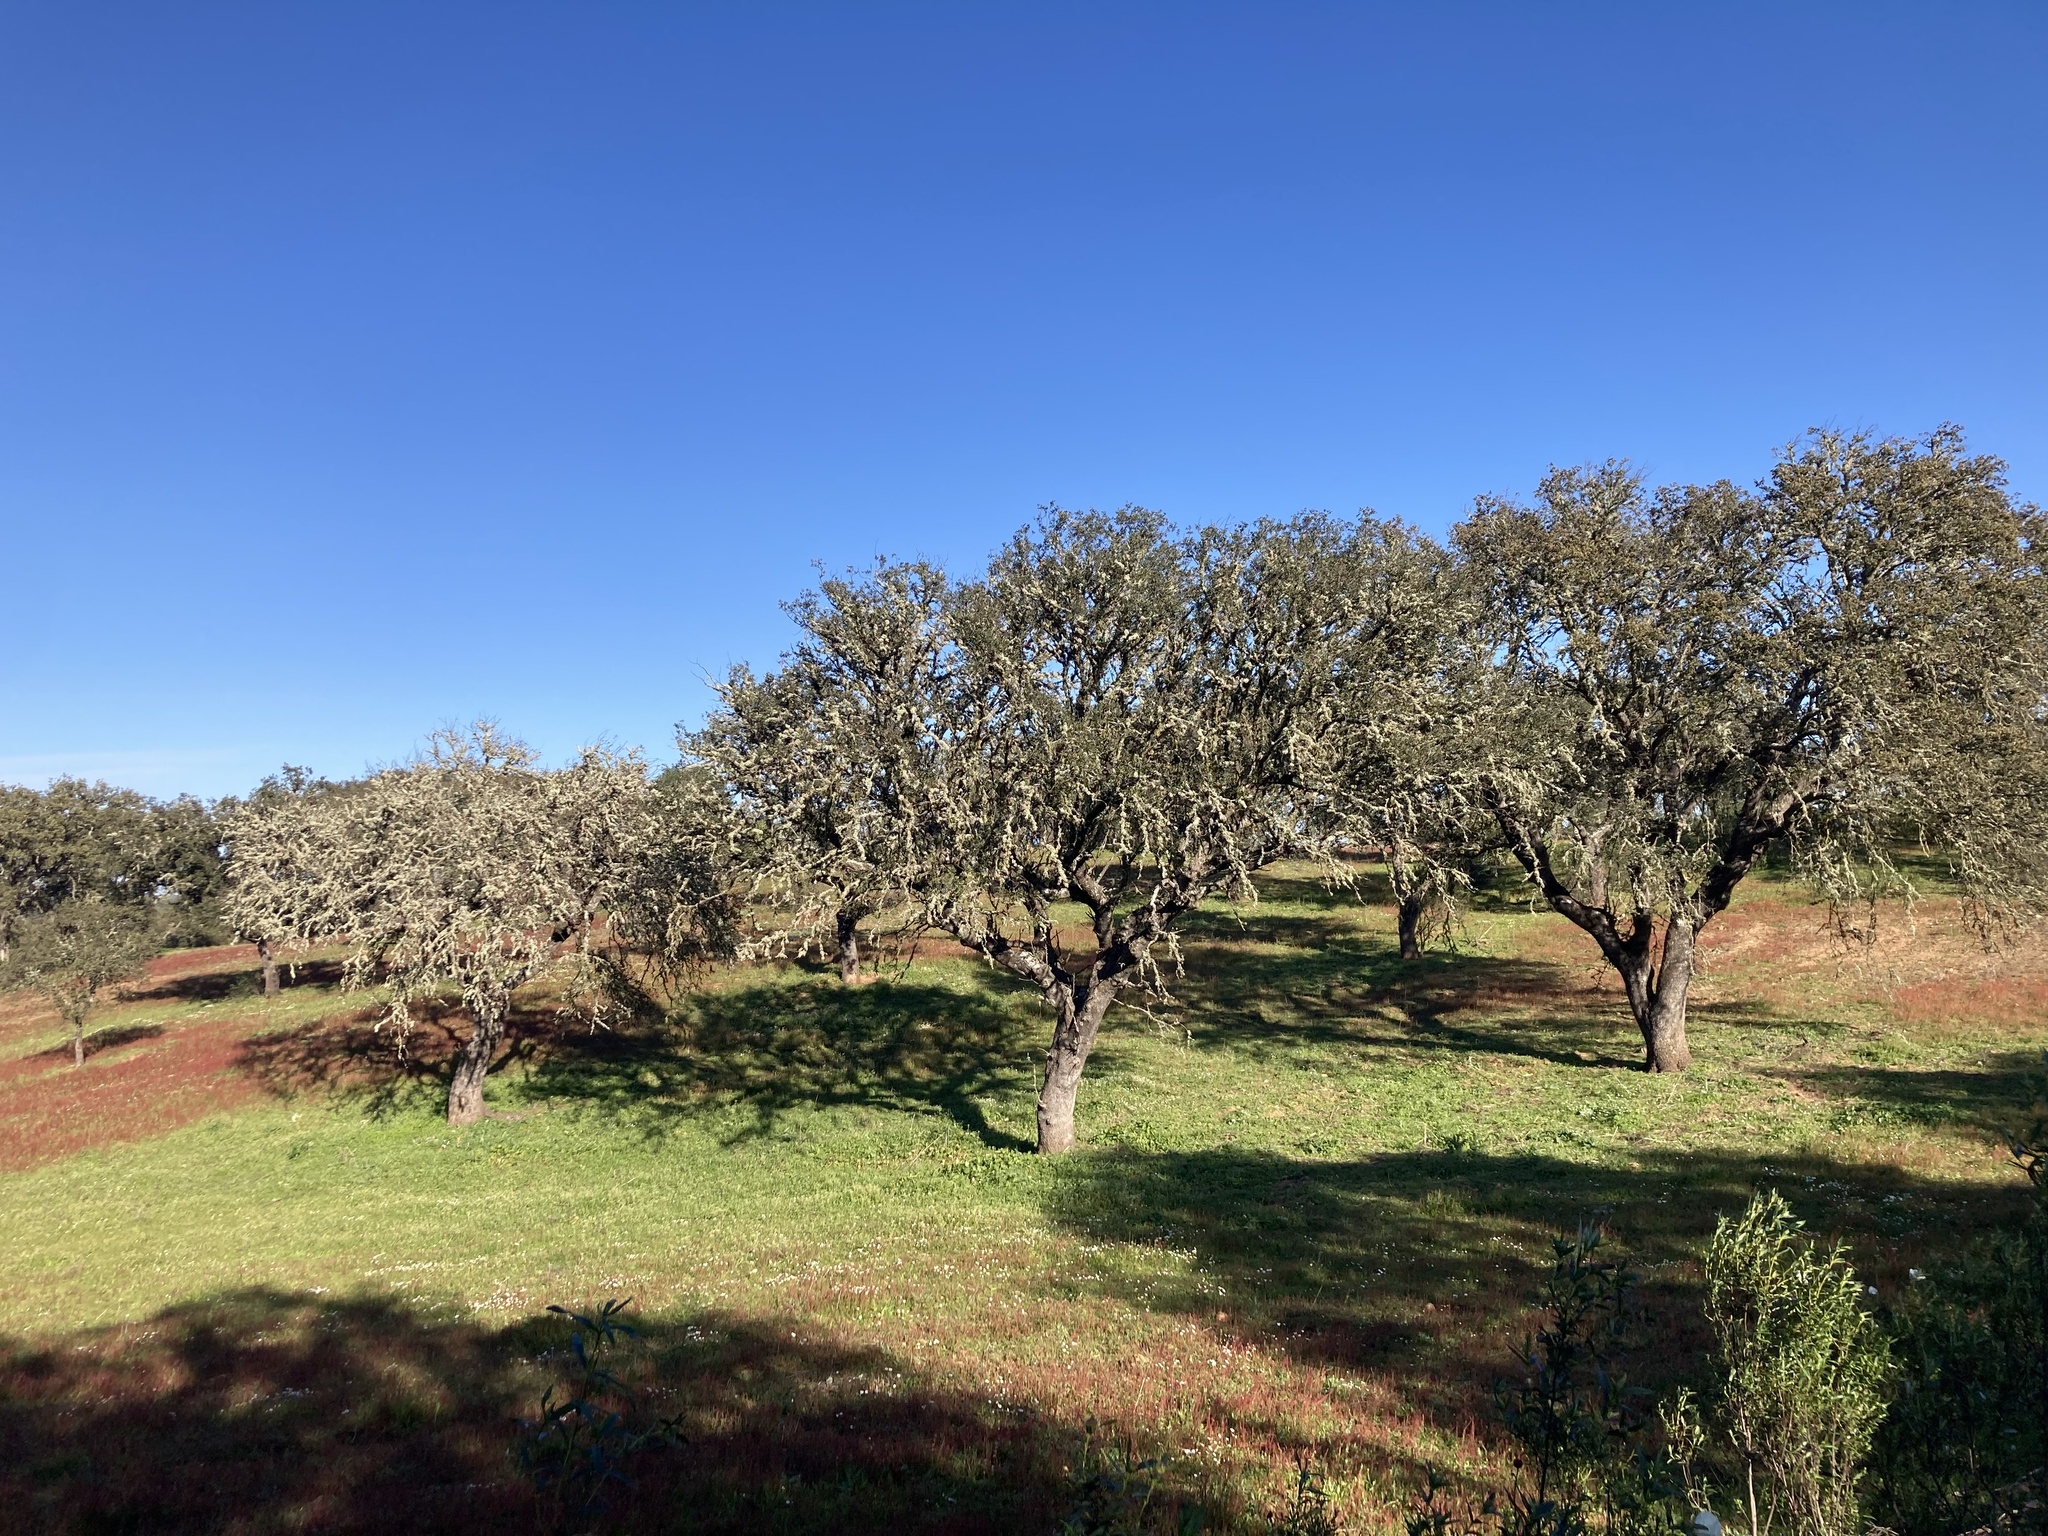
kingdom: Plantae
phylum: Tracheophyta
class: Magnoliopsida
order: Fagales
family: Fagaceae
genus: Quercus
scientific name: Quercus rotundifolia
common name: Holm oak
